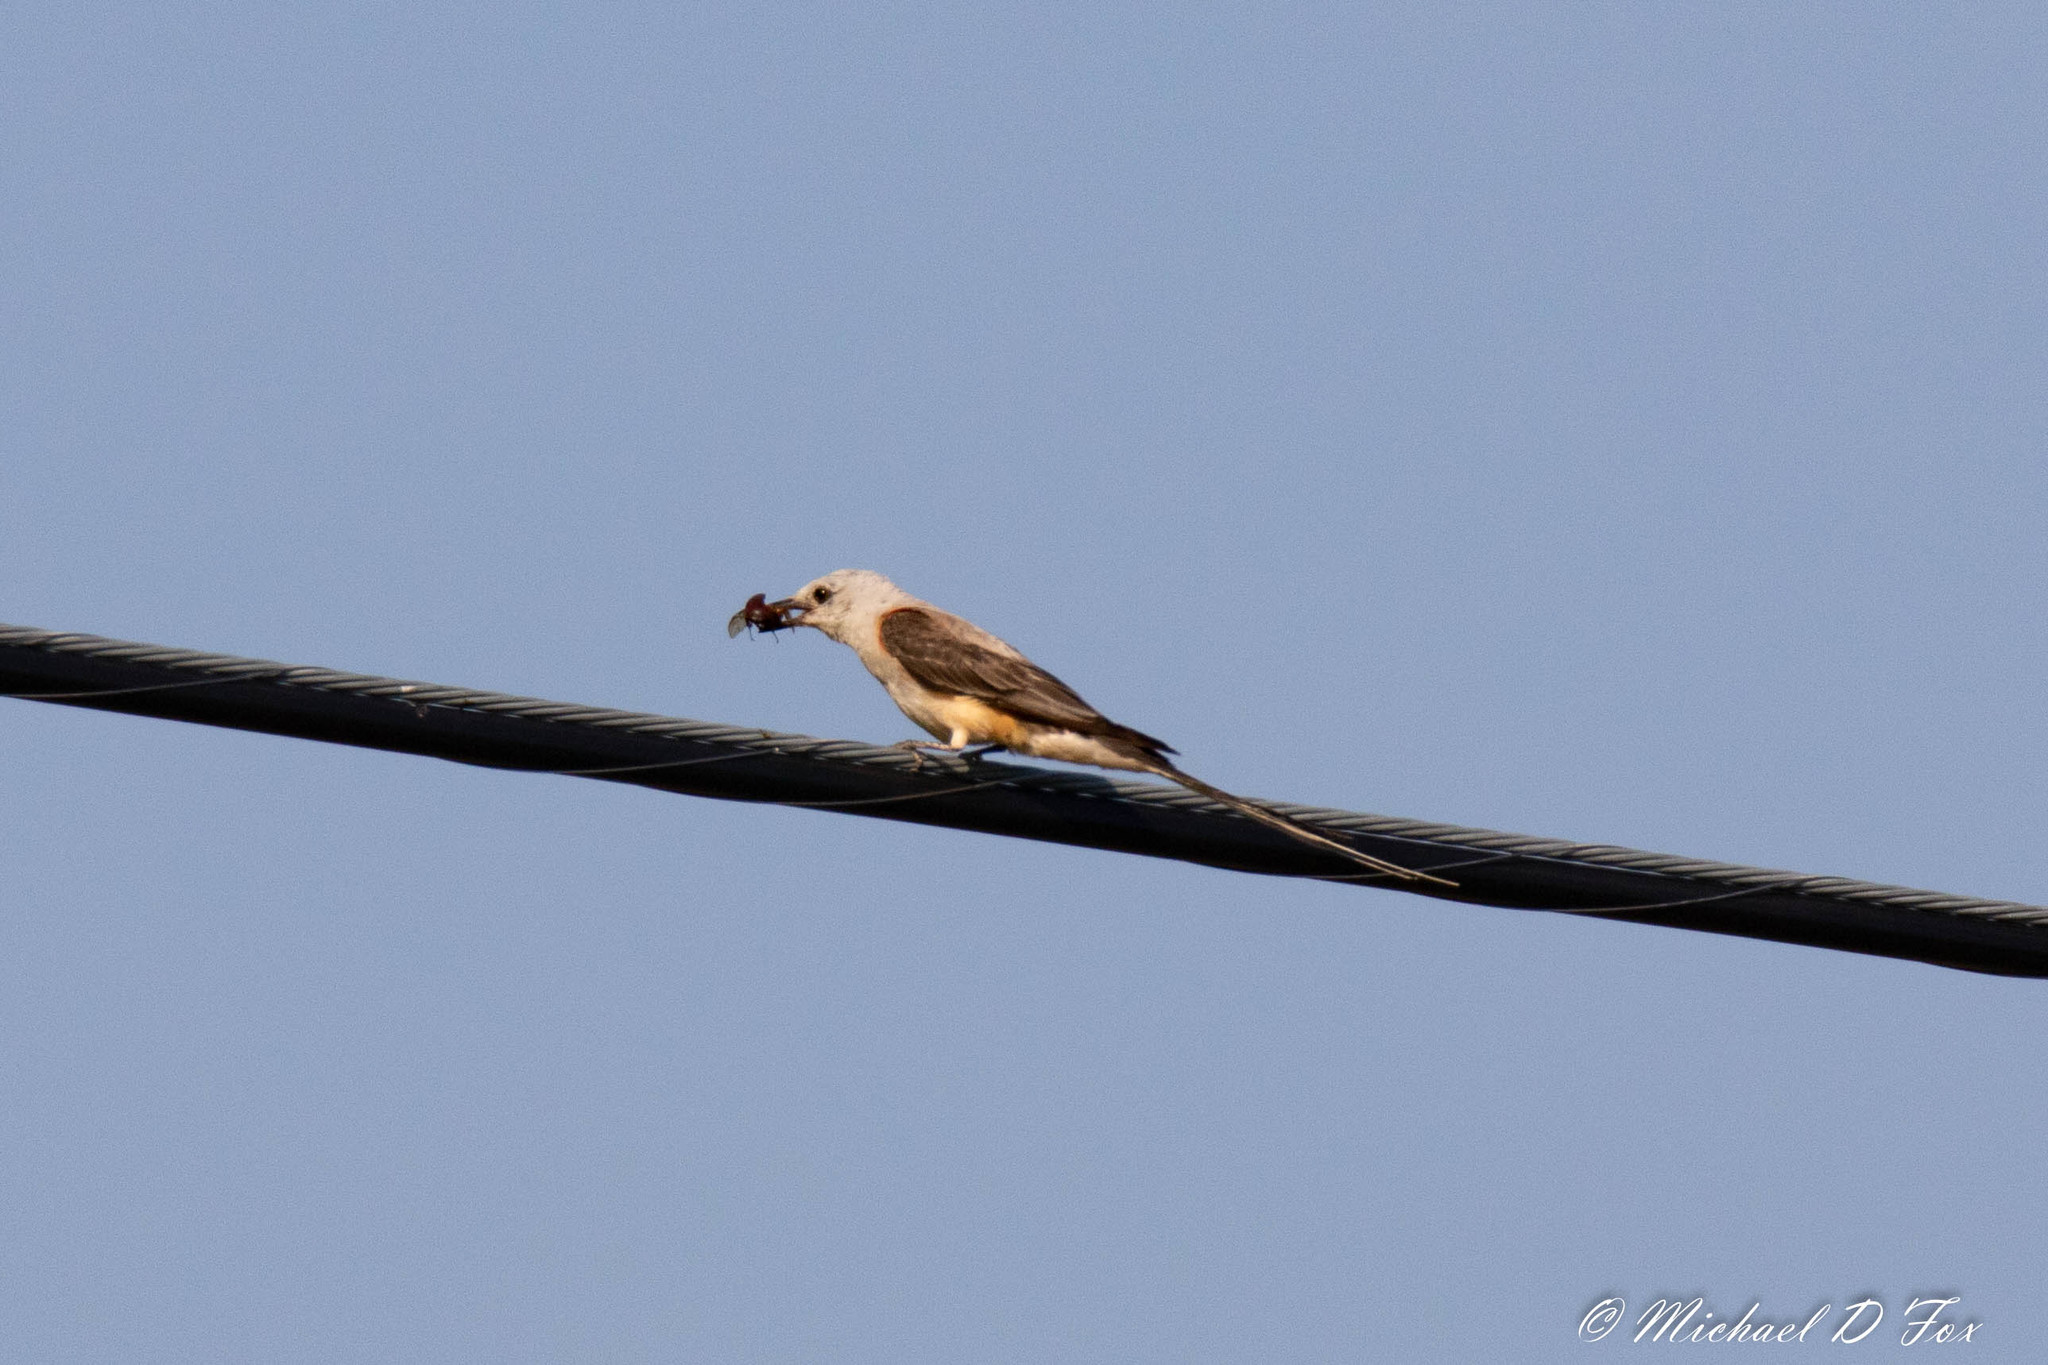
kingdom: Animalia
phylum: Chordata
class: Aves
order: Passeriformes
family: Tyrannidae
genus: Tyrannus
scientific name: Tyrannus forficatus
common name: Scissor-tailed flycatcher
